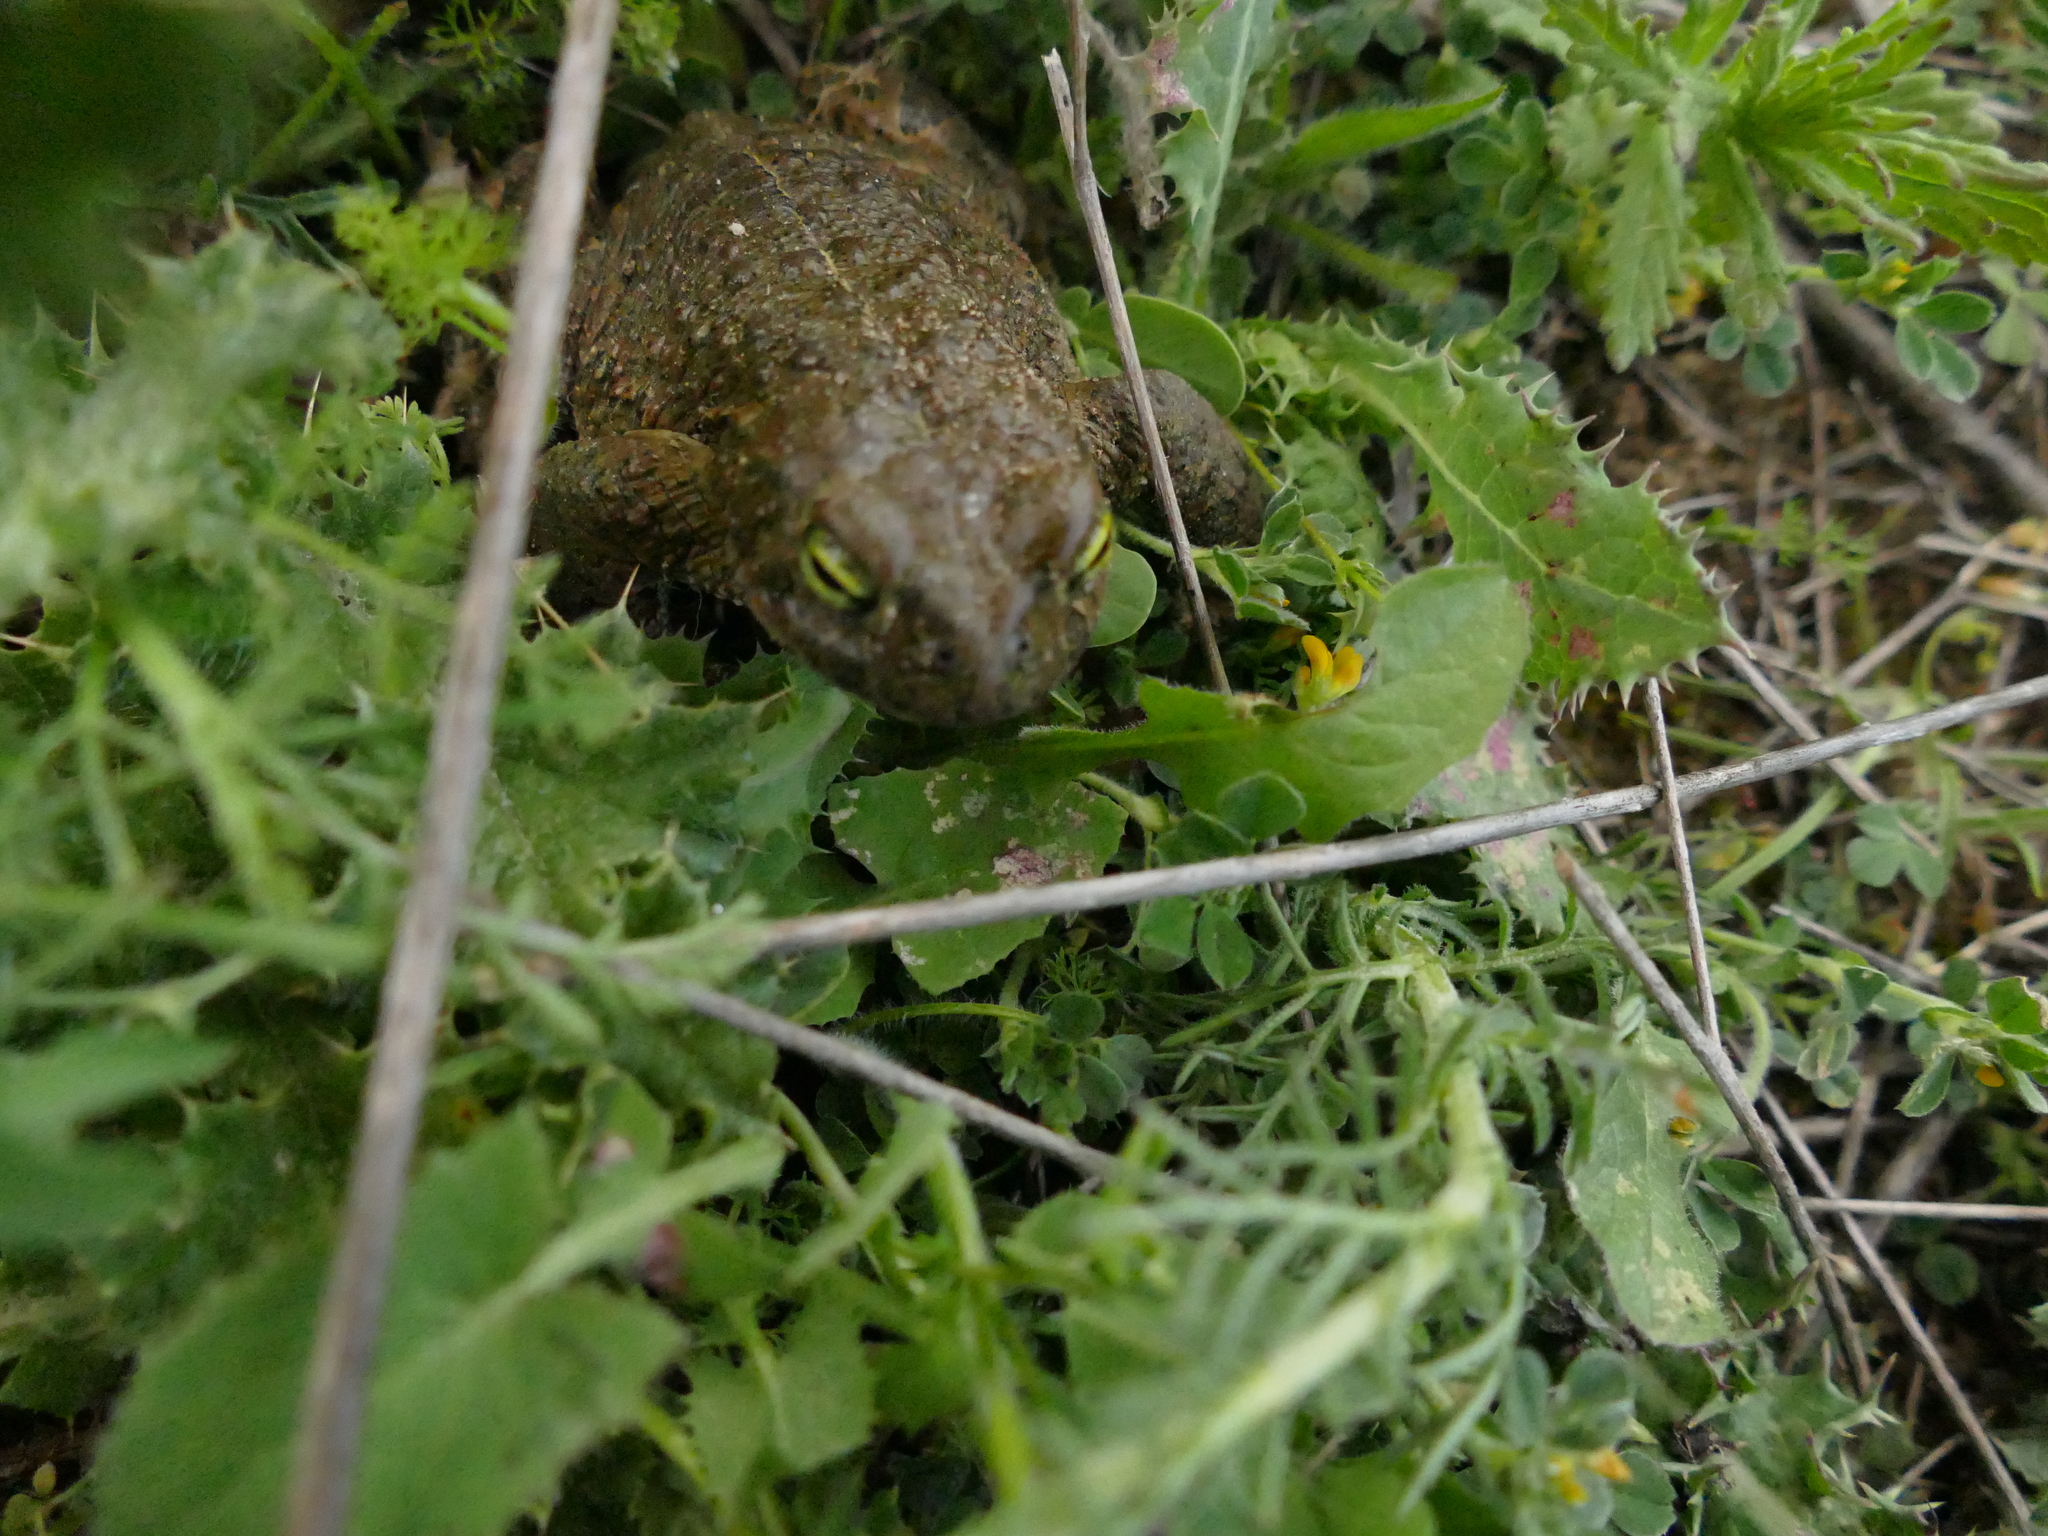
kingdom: Animalia
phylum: Chordata
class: Amphibia
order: Anura
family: Bufonidae
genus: Epidalea
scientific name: Epidalea calamita
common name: Natterjack toad
